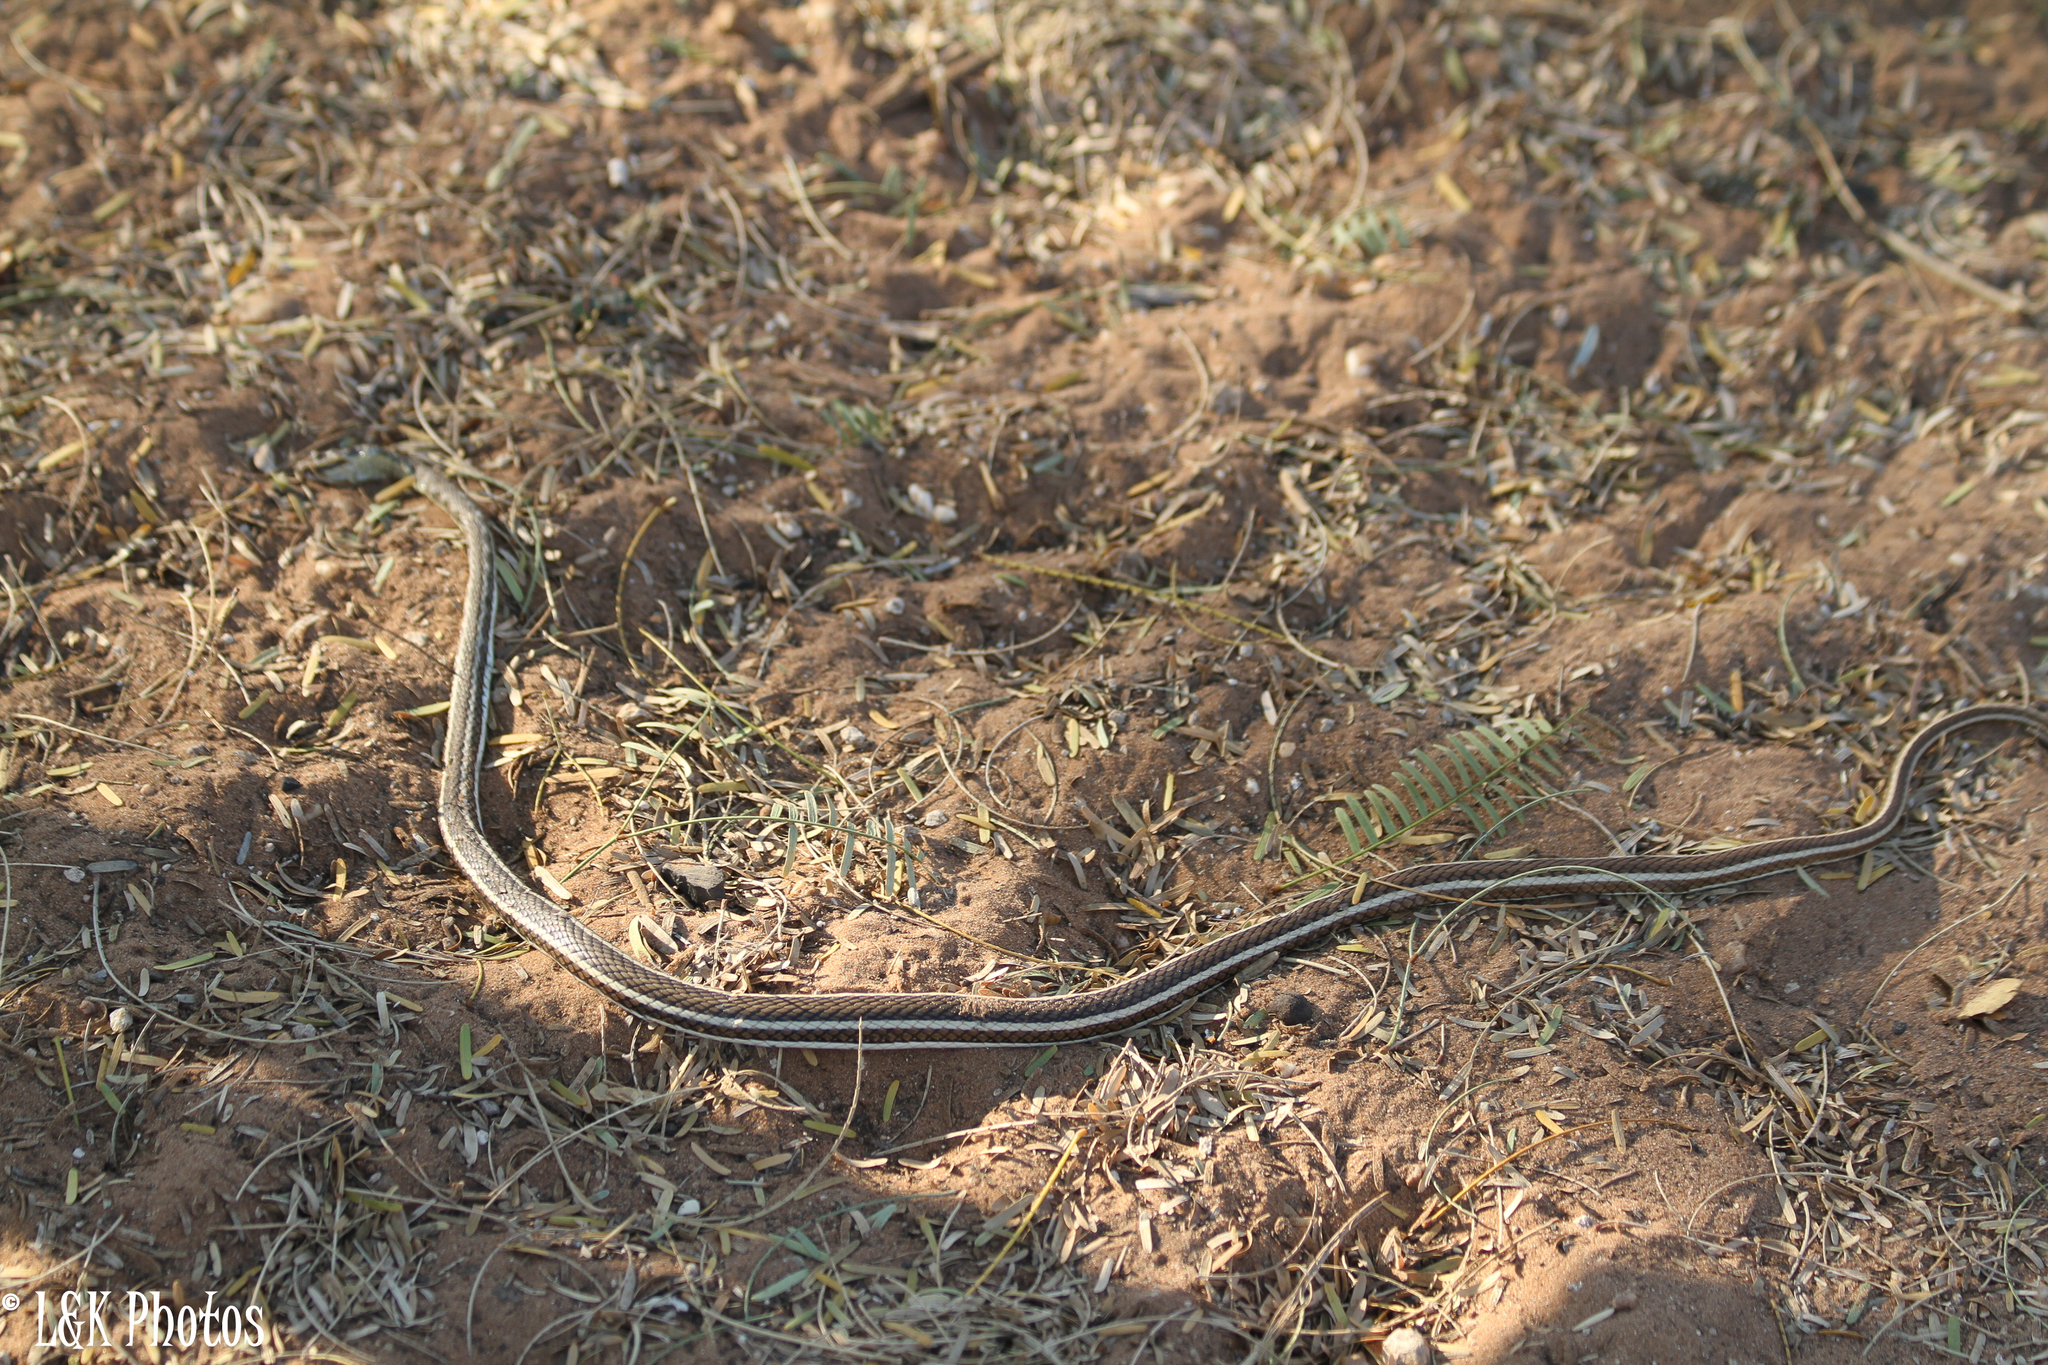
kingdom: Animalia
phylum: Chordata
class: Squamata
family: Psammophiidae
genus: Psammophis
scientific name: Psammophis subtaeniatus
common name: Stripe-bellied sand snake
